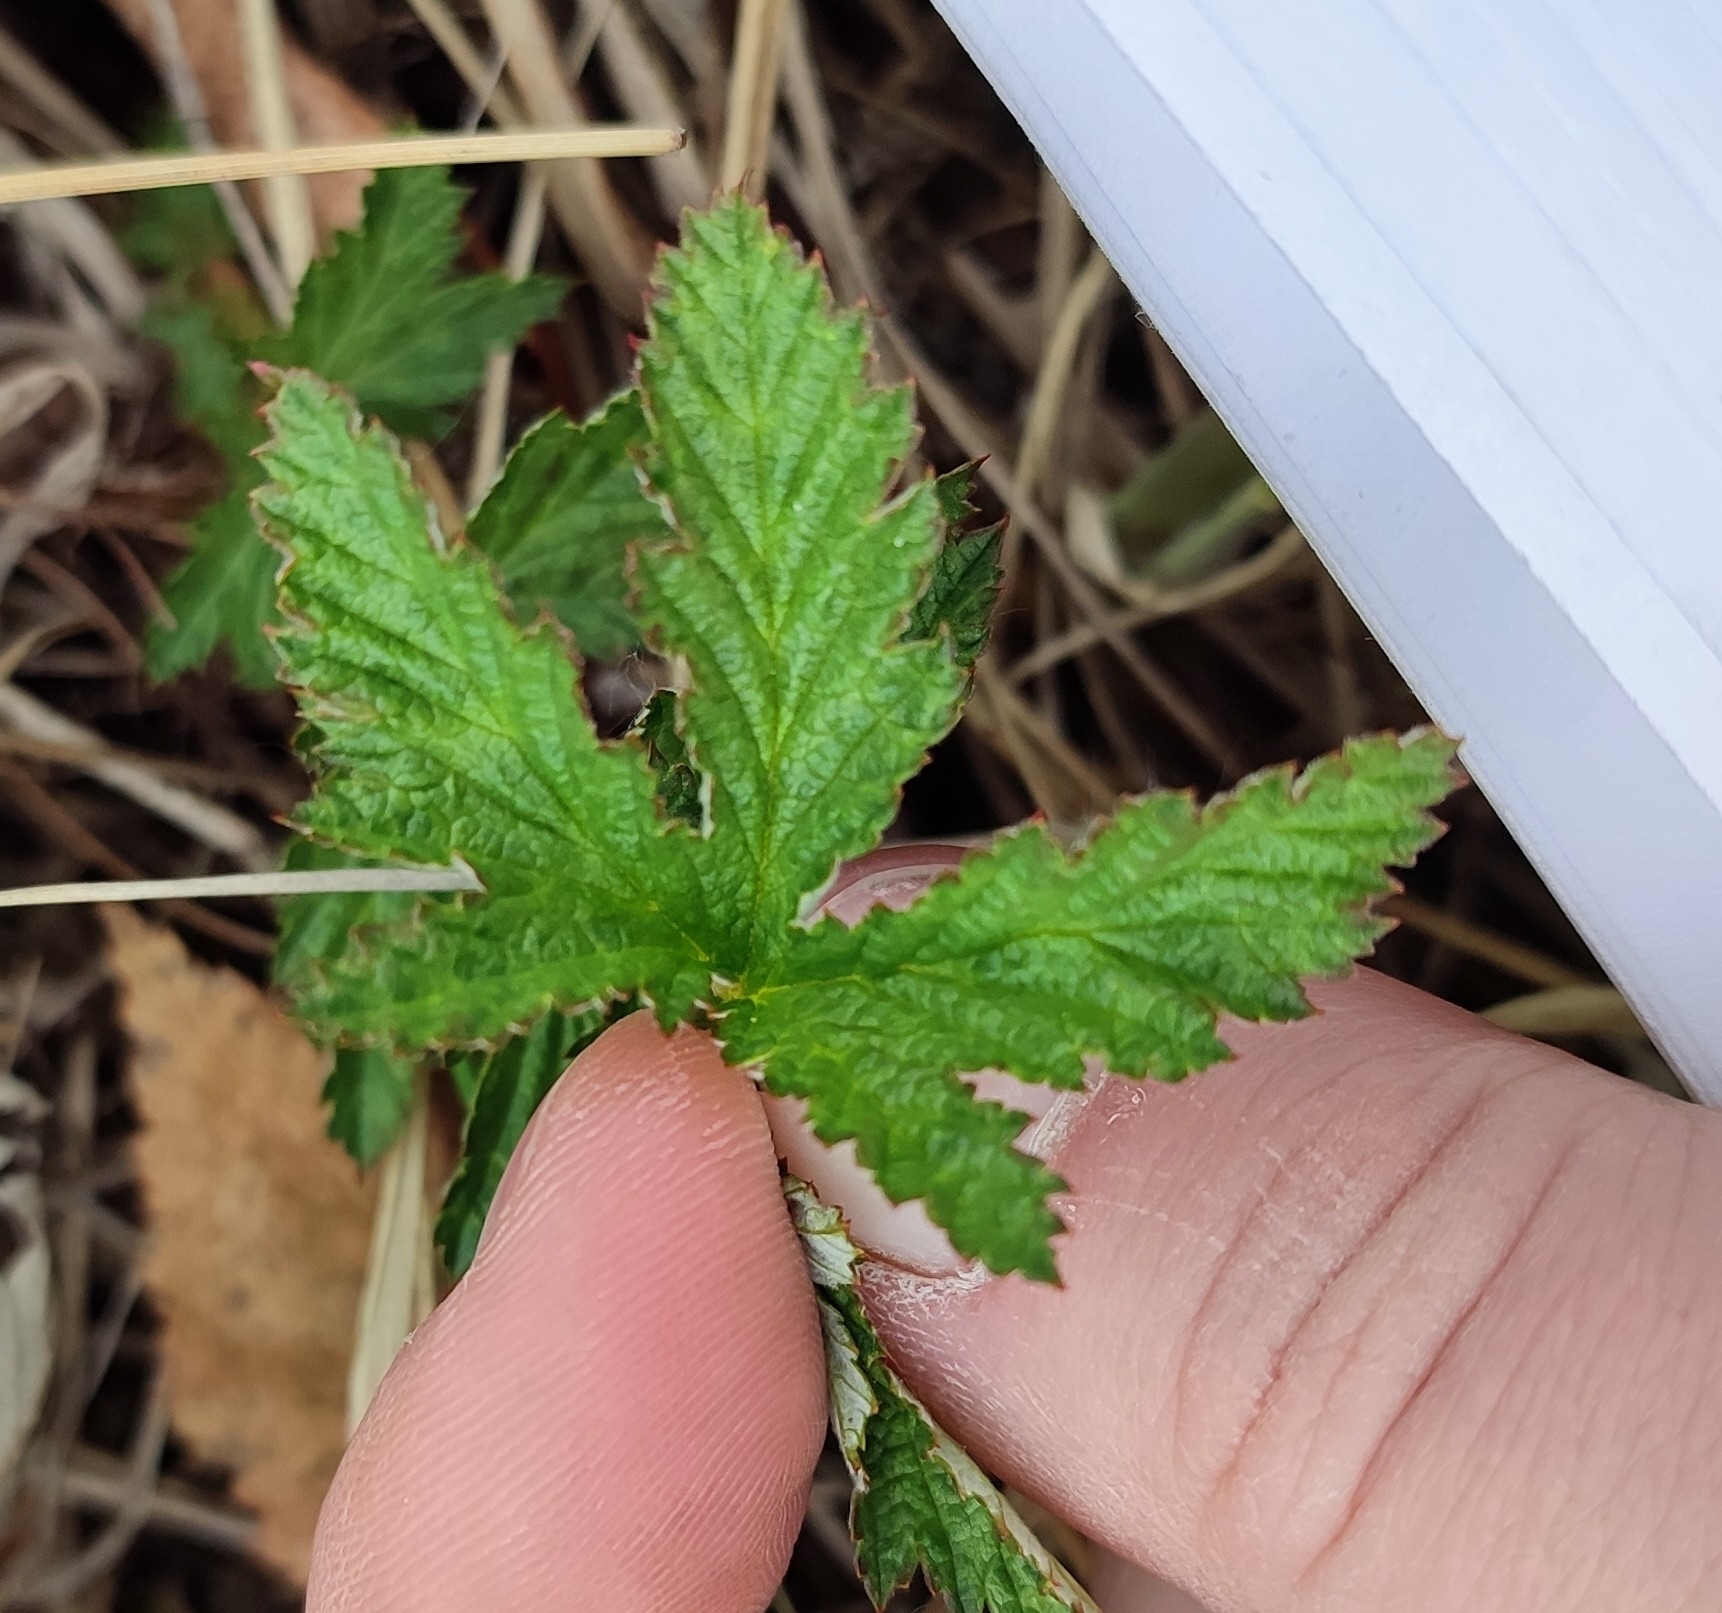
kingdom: Plantae
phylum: Tracheophyta
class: Magnoliopsida
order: Rosales
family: Rosaceae
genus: Filipendula
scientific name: Filipendula ulmaria
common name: Meadowsweet
